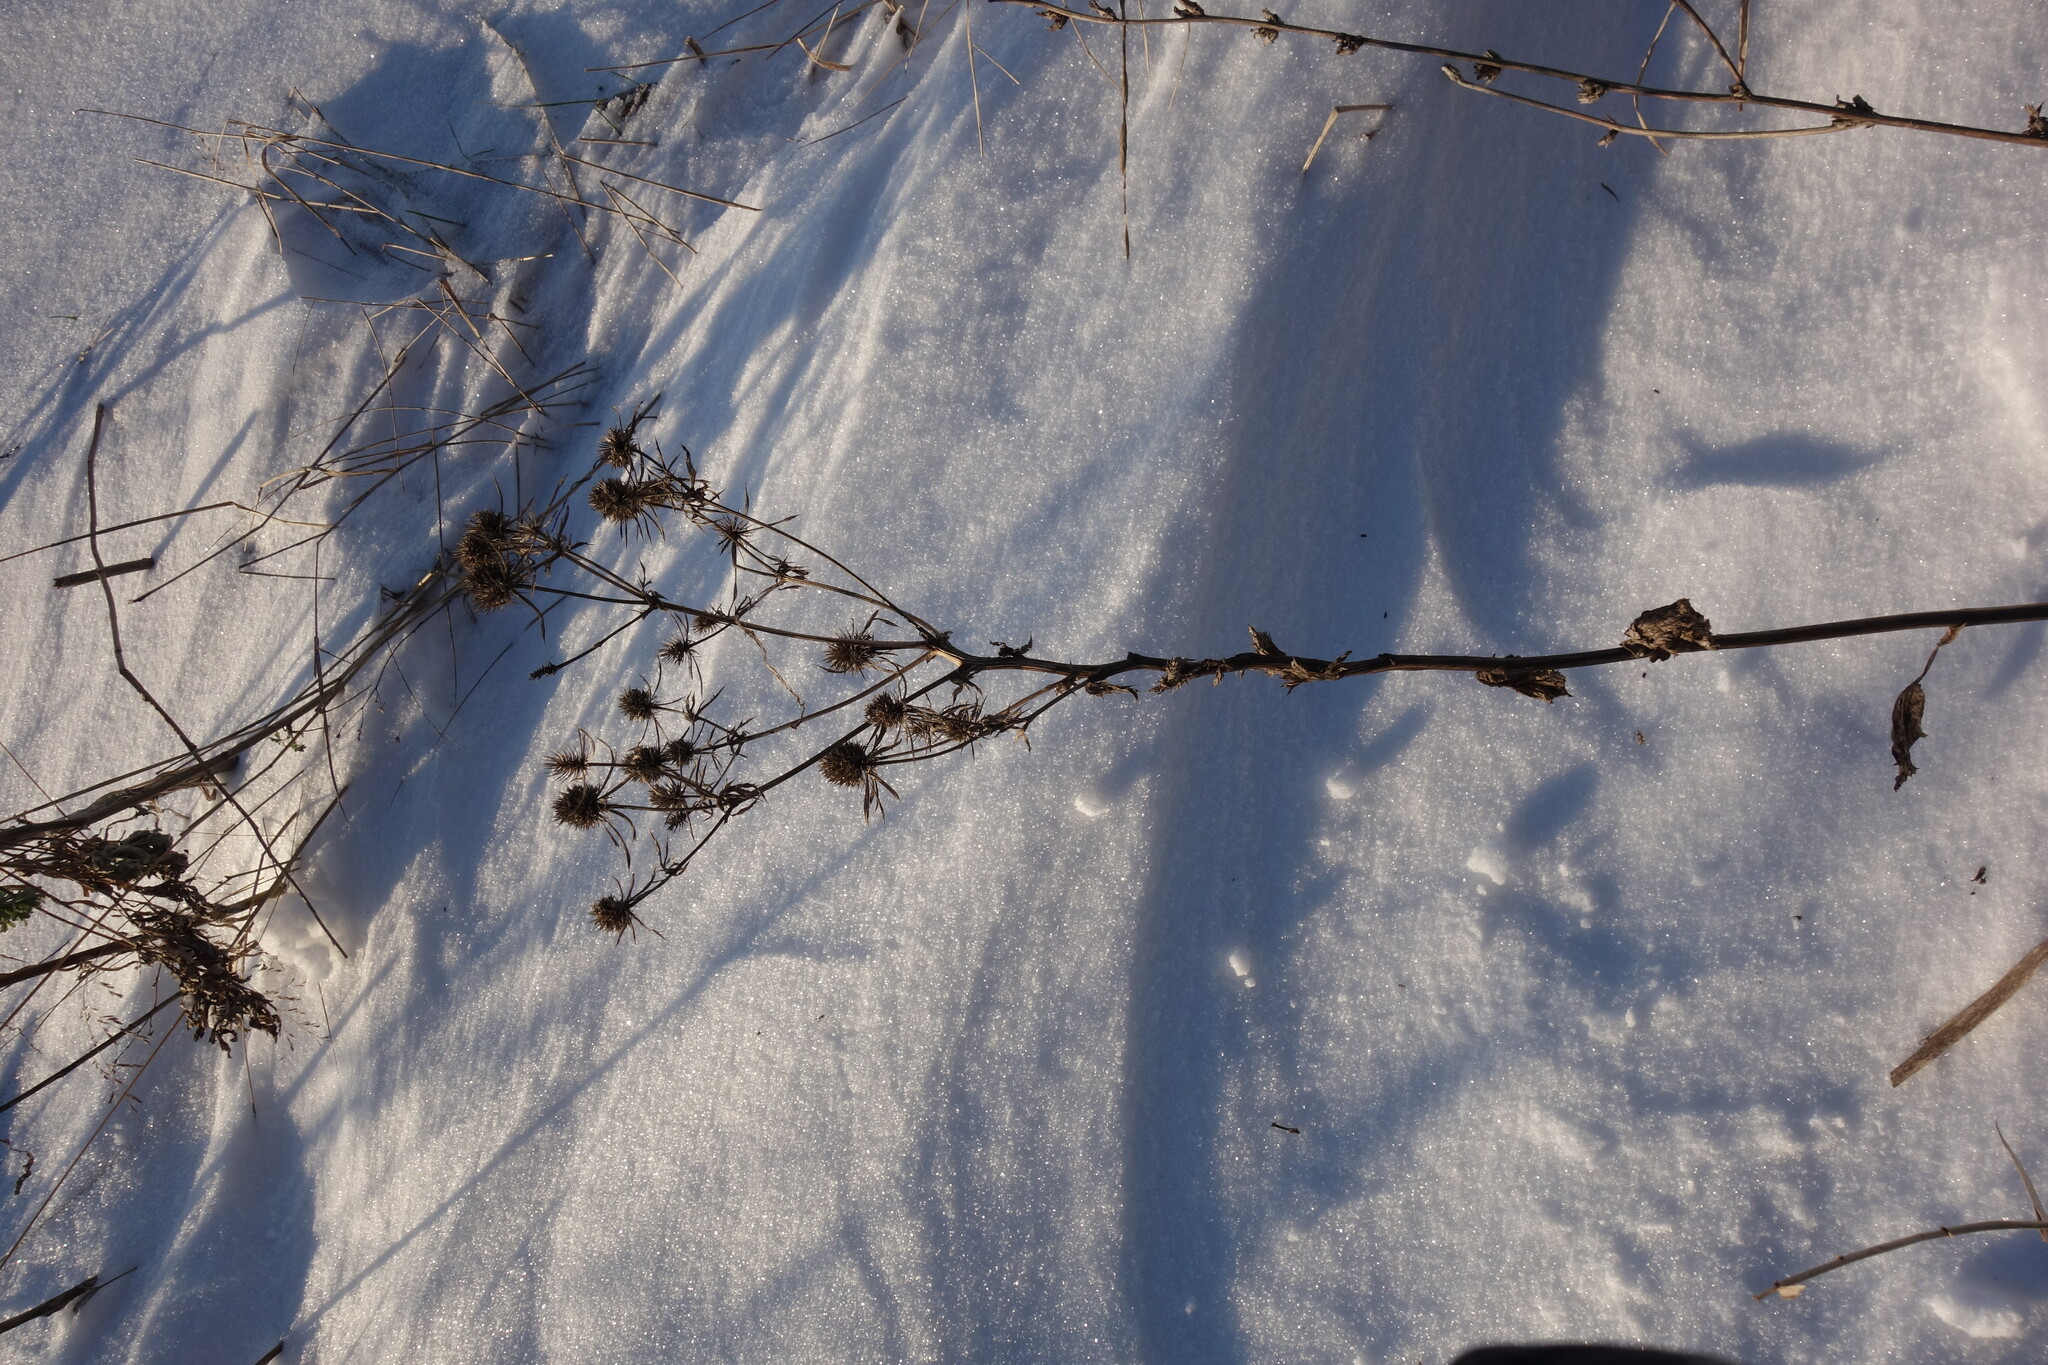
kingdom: Plantae
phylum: Tracheophyta
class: Magnoliopsida
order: Apiales
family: Apiaceae
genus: Eryngium
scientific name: Eryngium planum
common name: Blue eryngo
